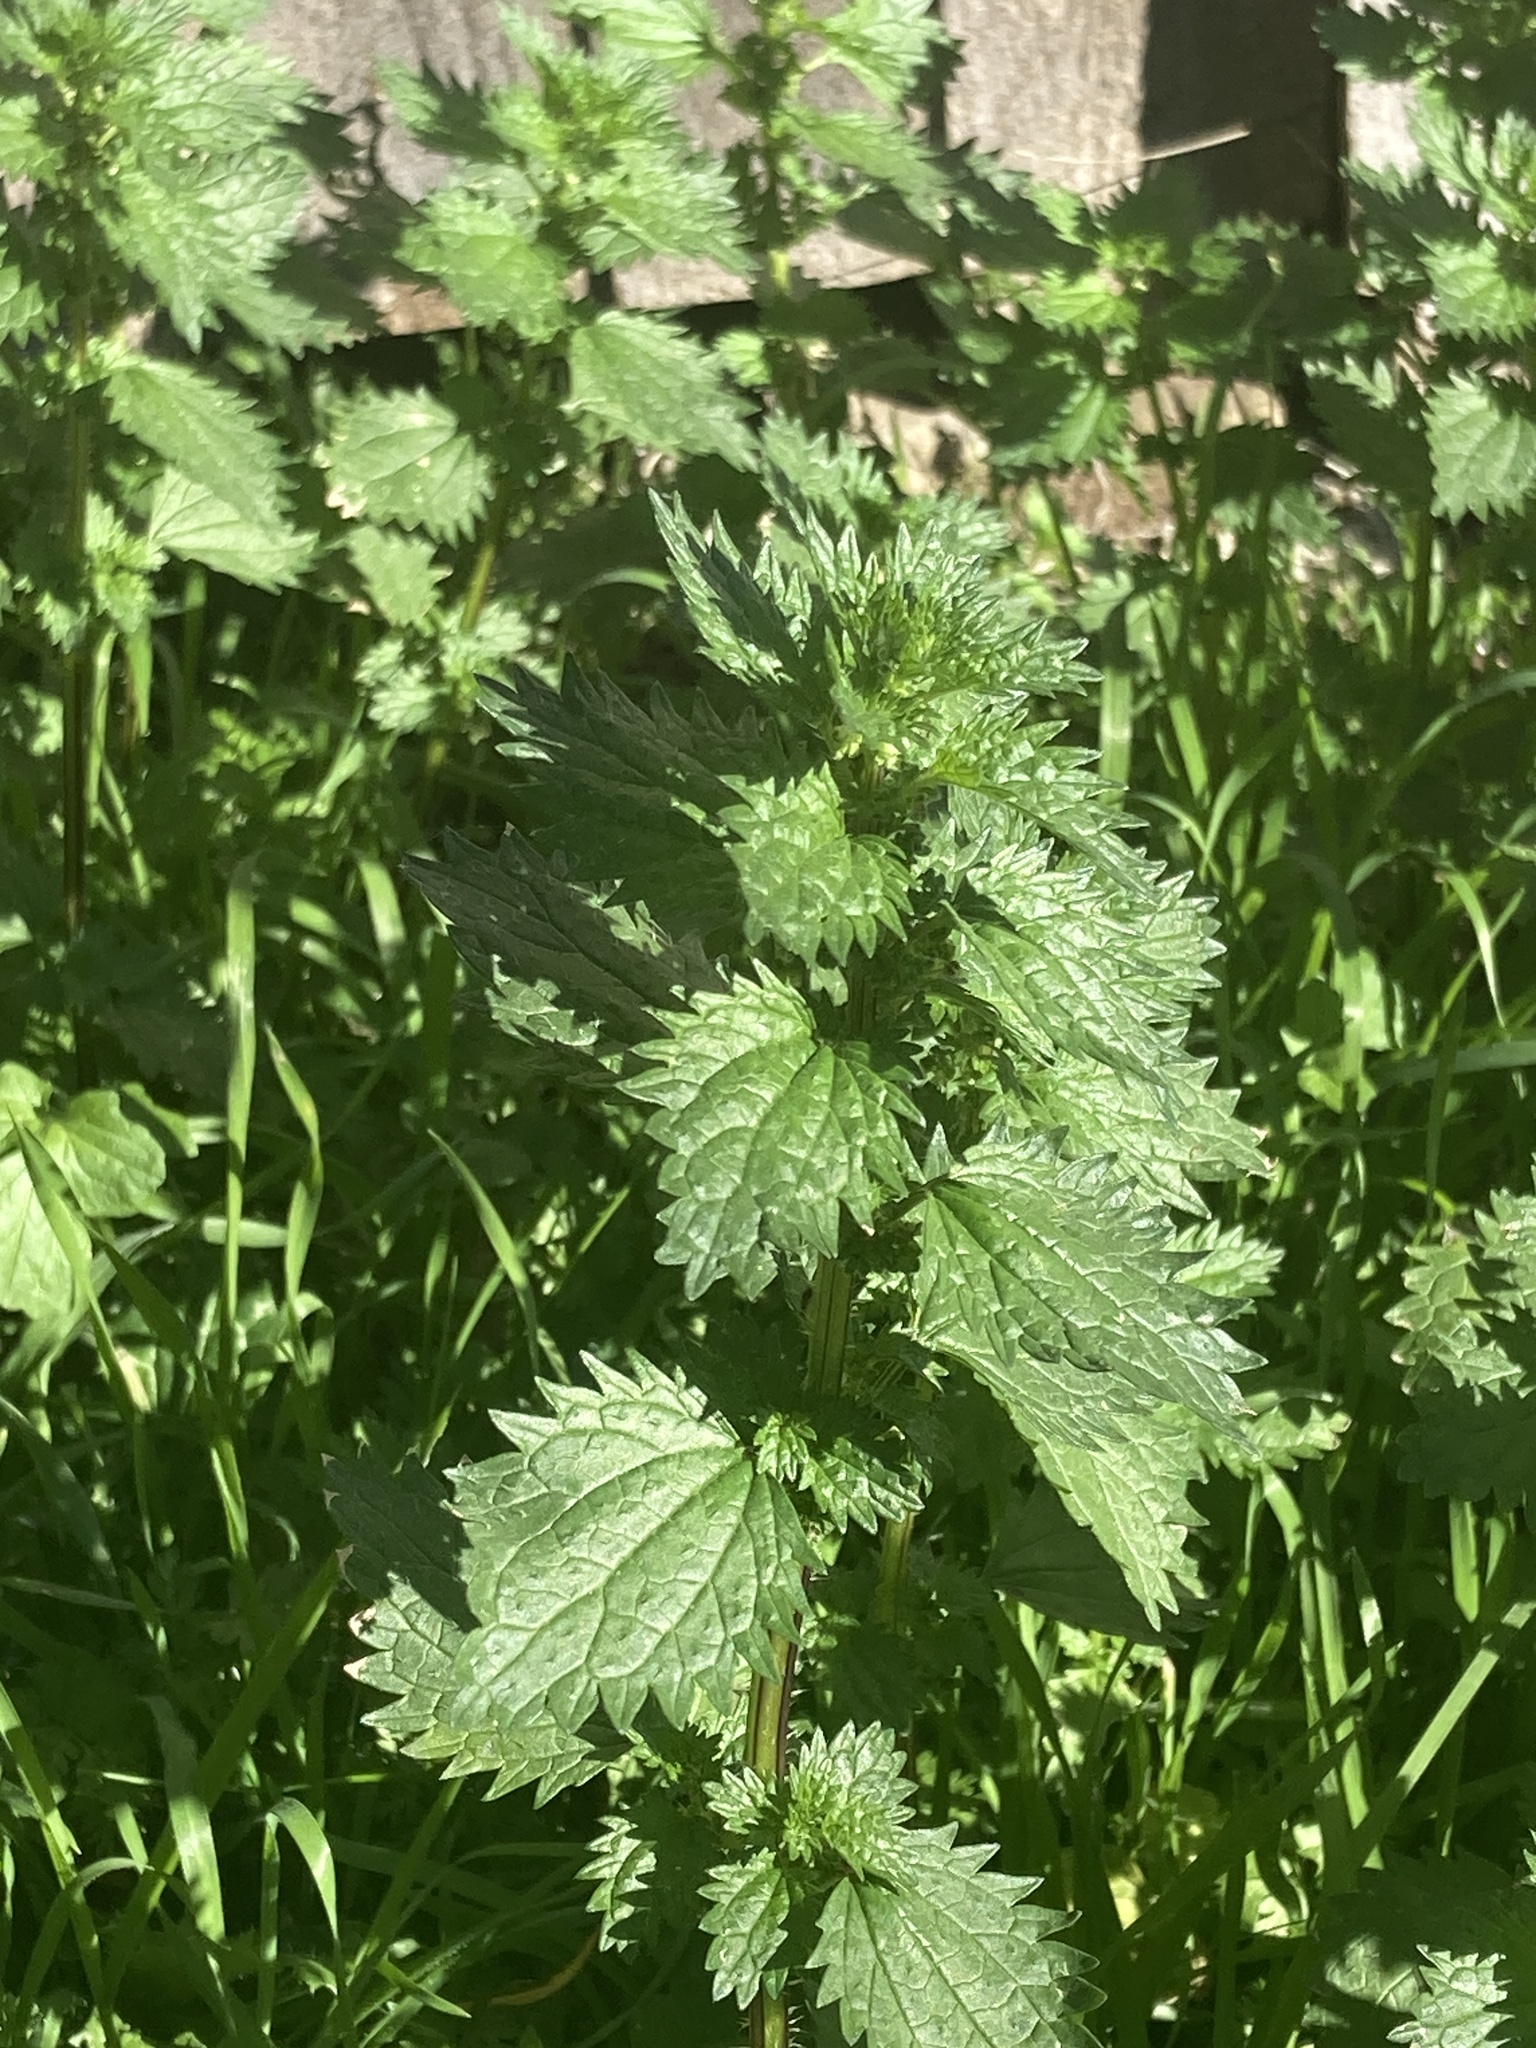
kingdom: Plantae
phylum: Tracheophyta
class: Magnoliopsida
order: Rosales
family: Urticaceae
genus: Urtica
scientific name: Urtica urens
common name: Dwarf nettle
